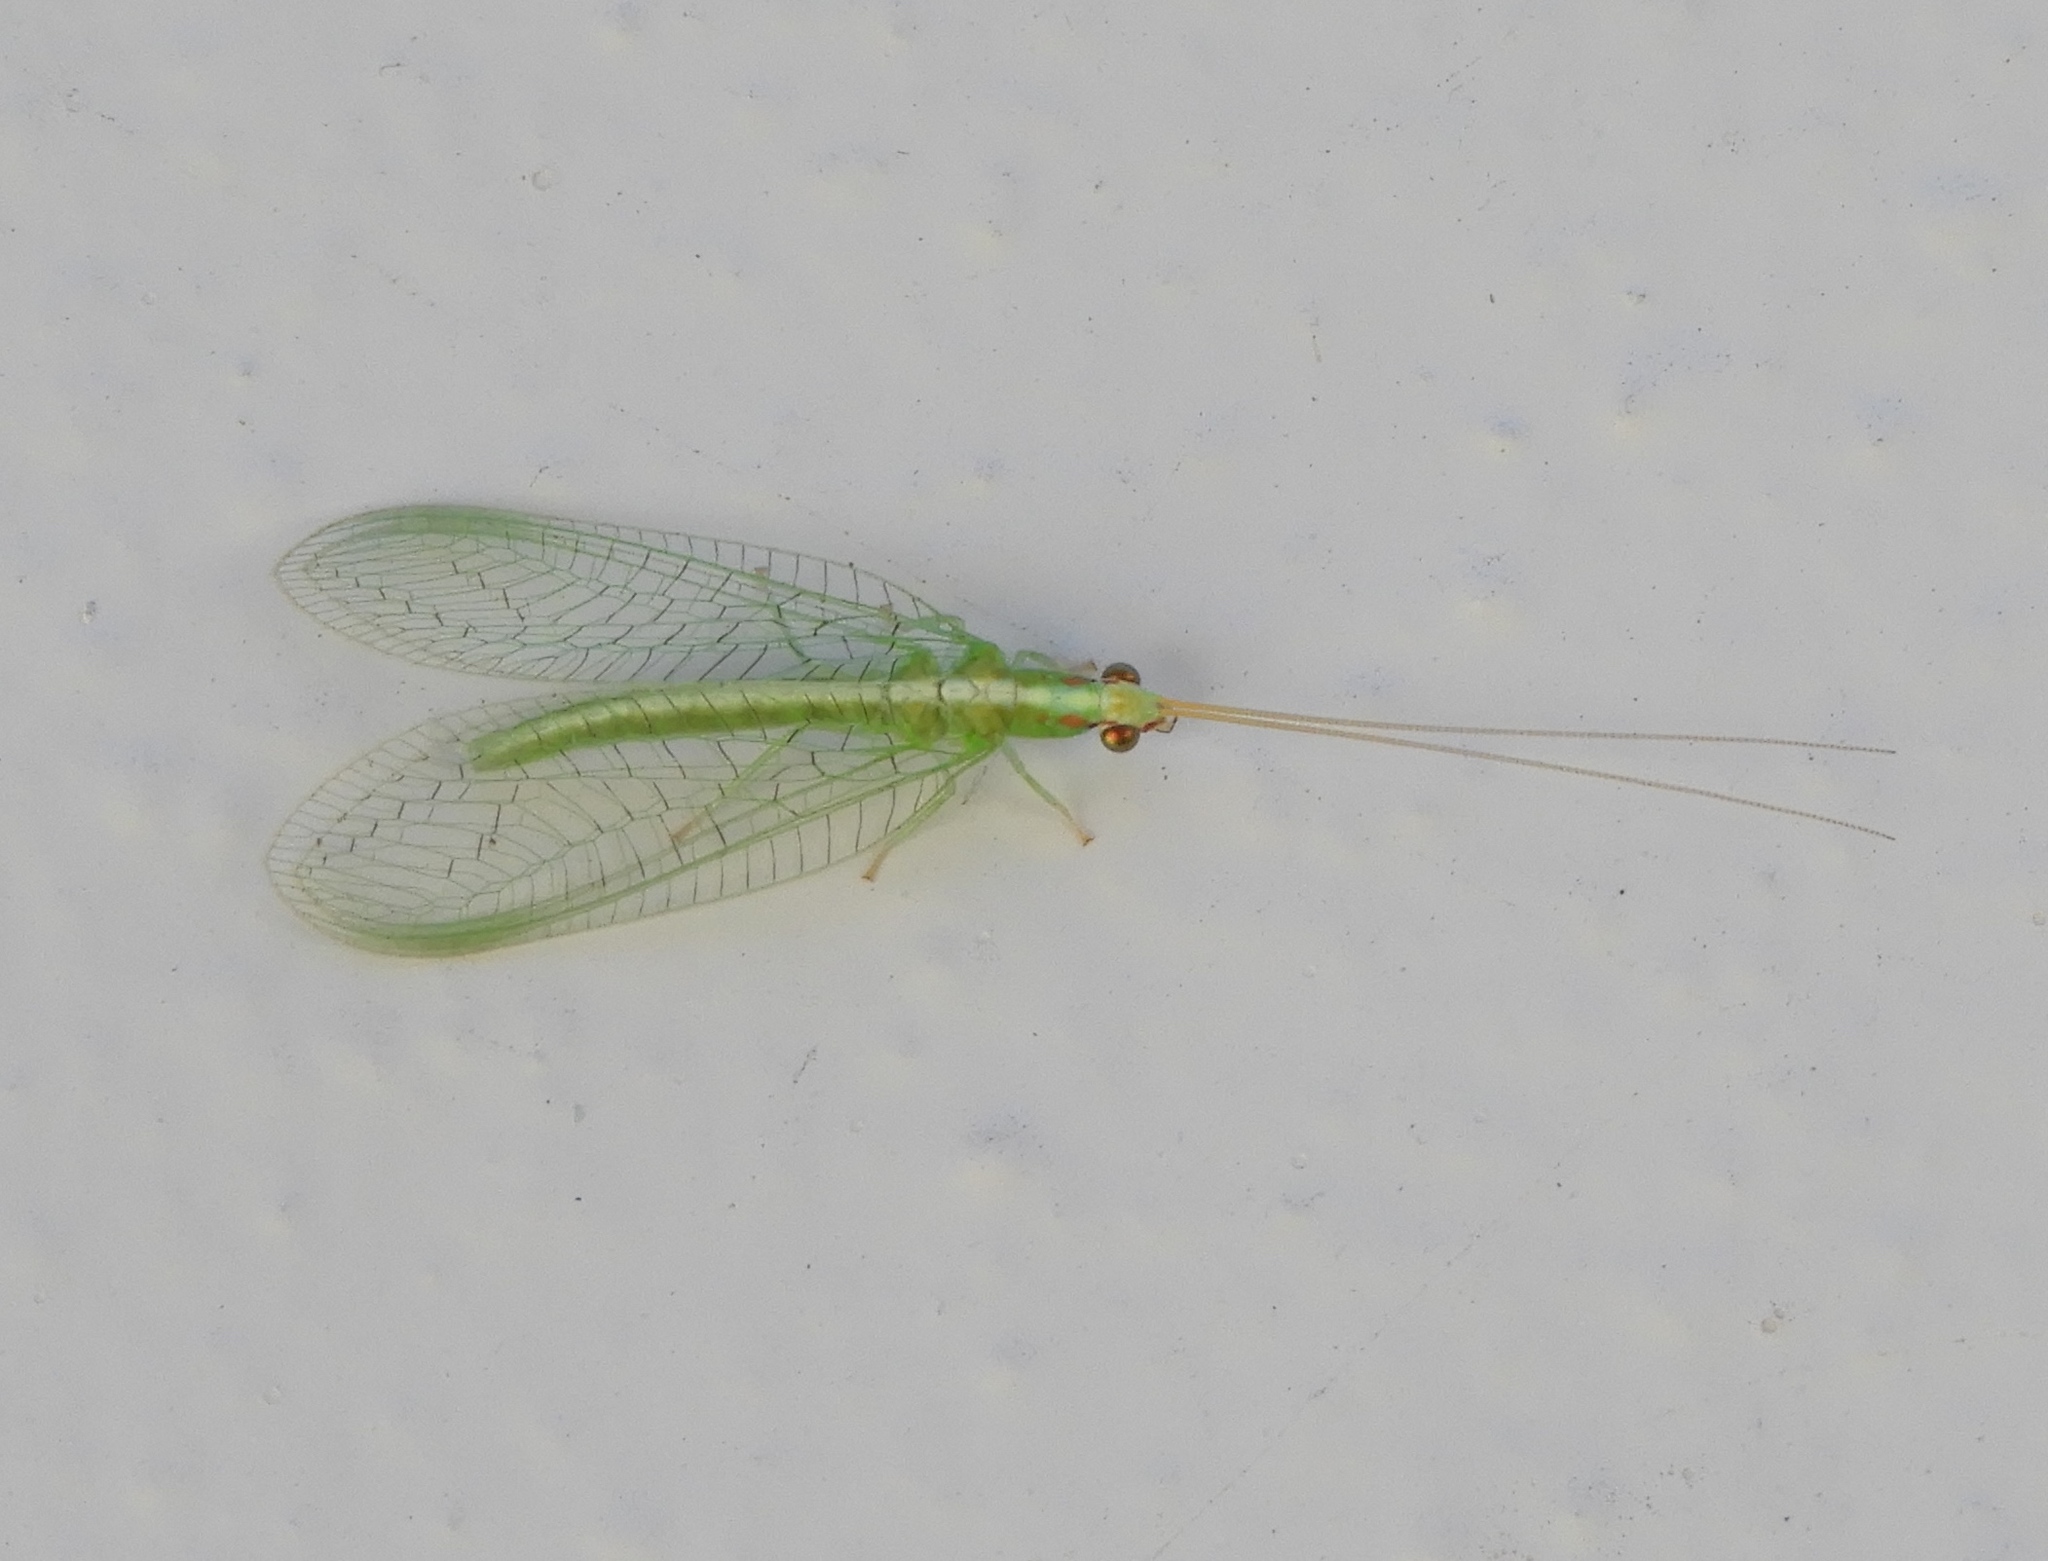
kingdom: Animalia
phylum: Arthropoda
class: Insecta
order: Neuroptera
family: Chrysopidae
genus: Chrysoperla
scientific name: Chrysoperla
